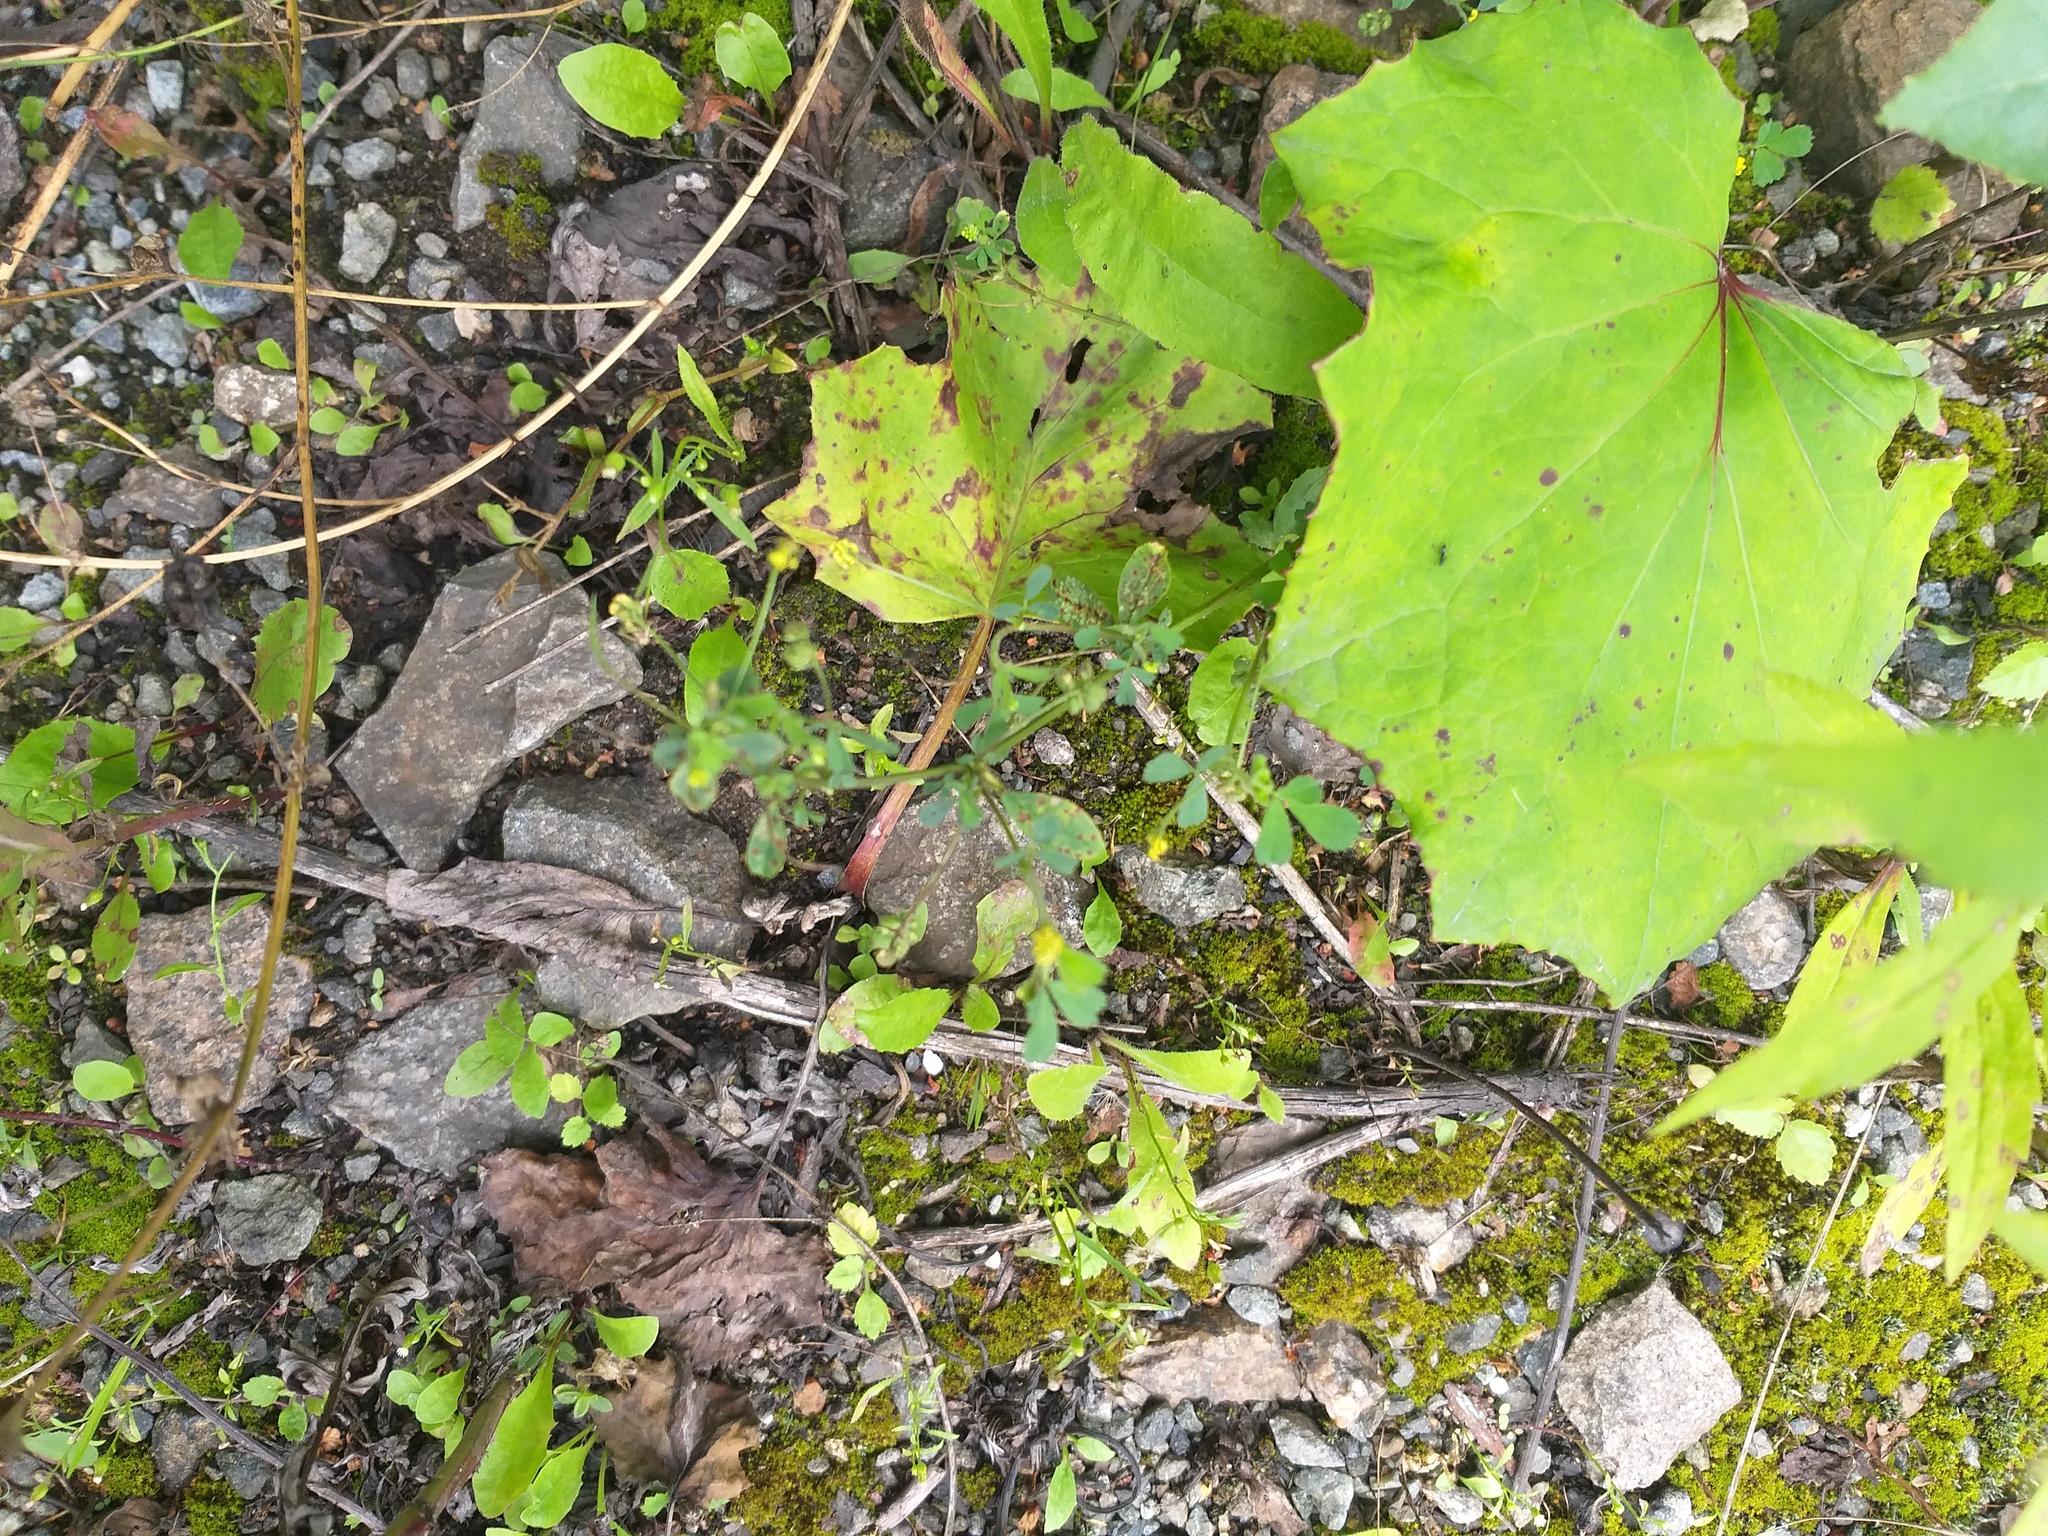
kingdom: Plantae
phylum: Tracheophyta
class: Magnoliopsida
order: Fabales
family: Fabaceae
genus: Medicago
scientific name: Medicago lupulina
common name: Black medick
